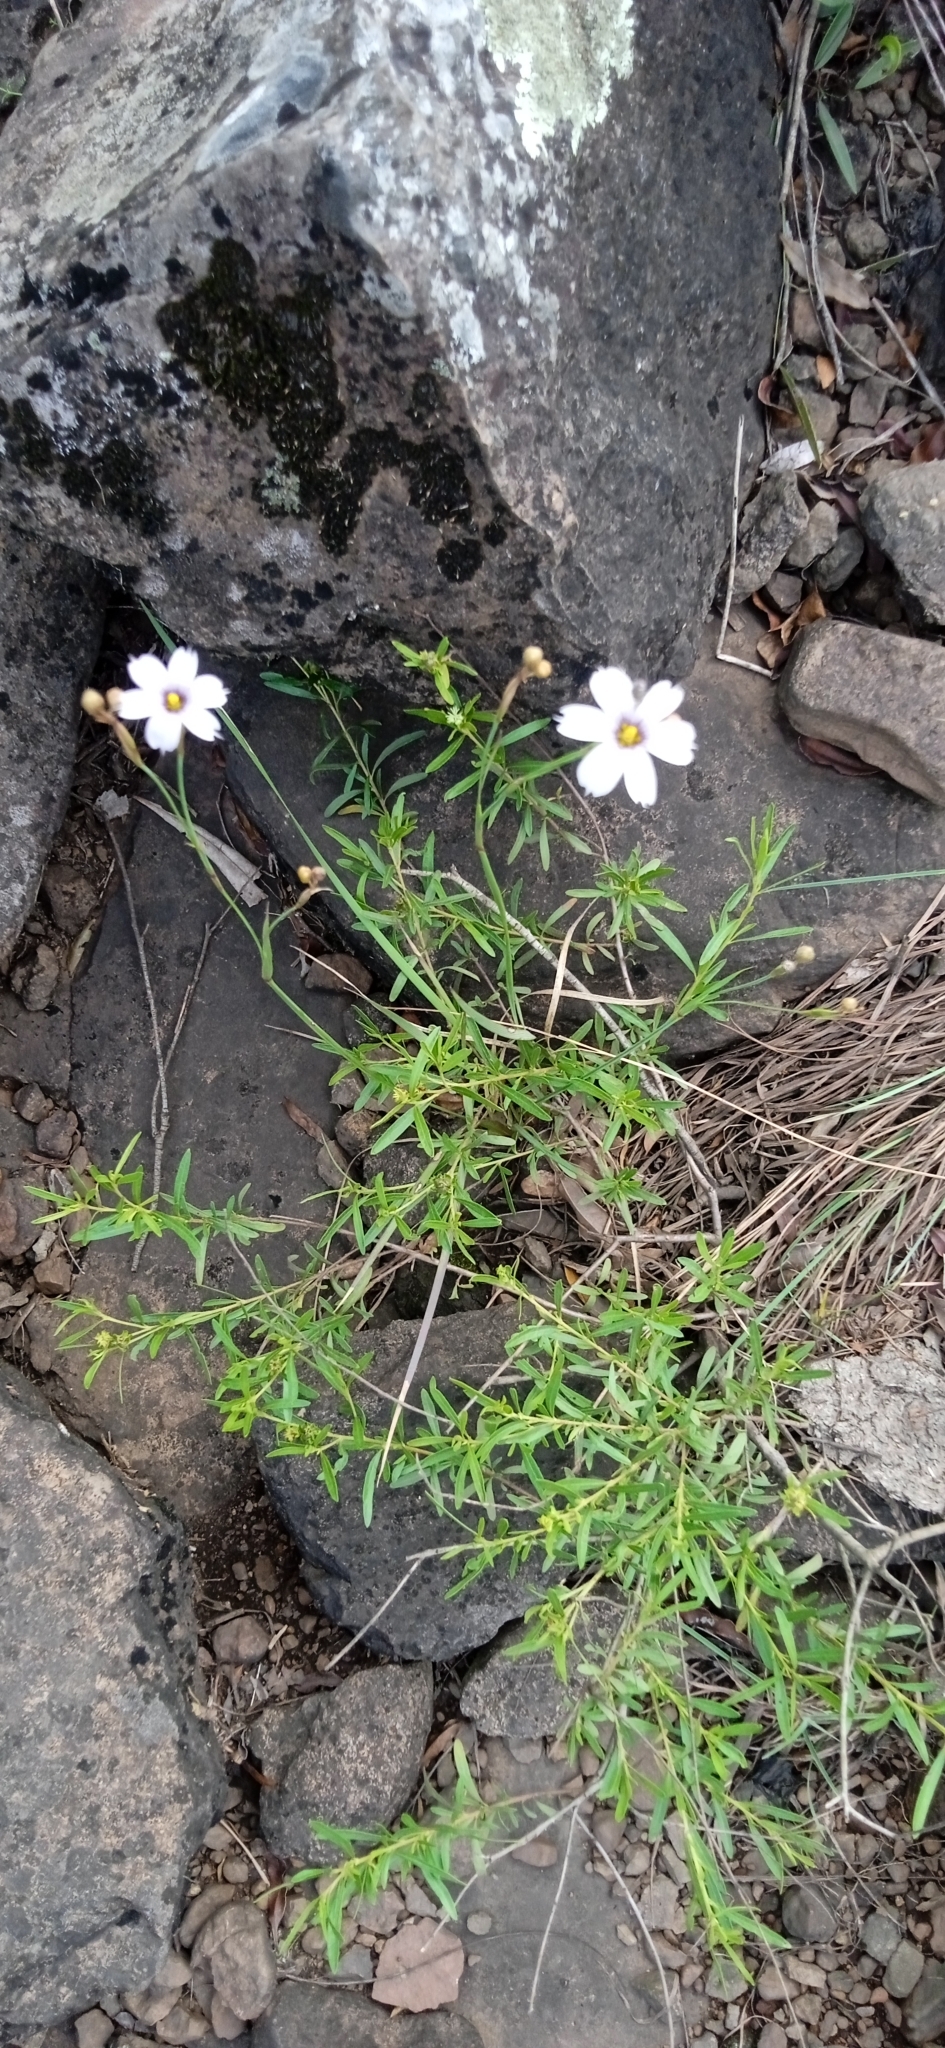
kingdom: Plantae
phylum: Tracheophyta
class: Liliopsida
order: Asparagales
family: Iridaceae
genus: Sisyrinchium
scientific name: Sisyrinchium platense
